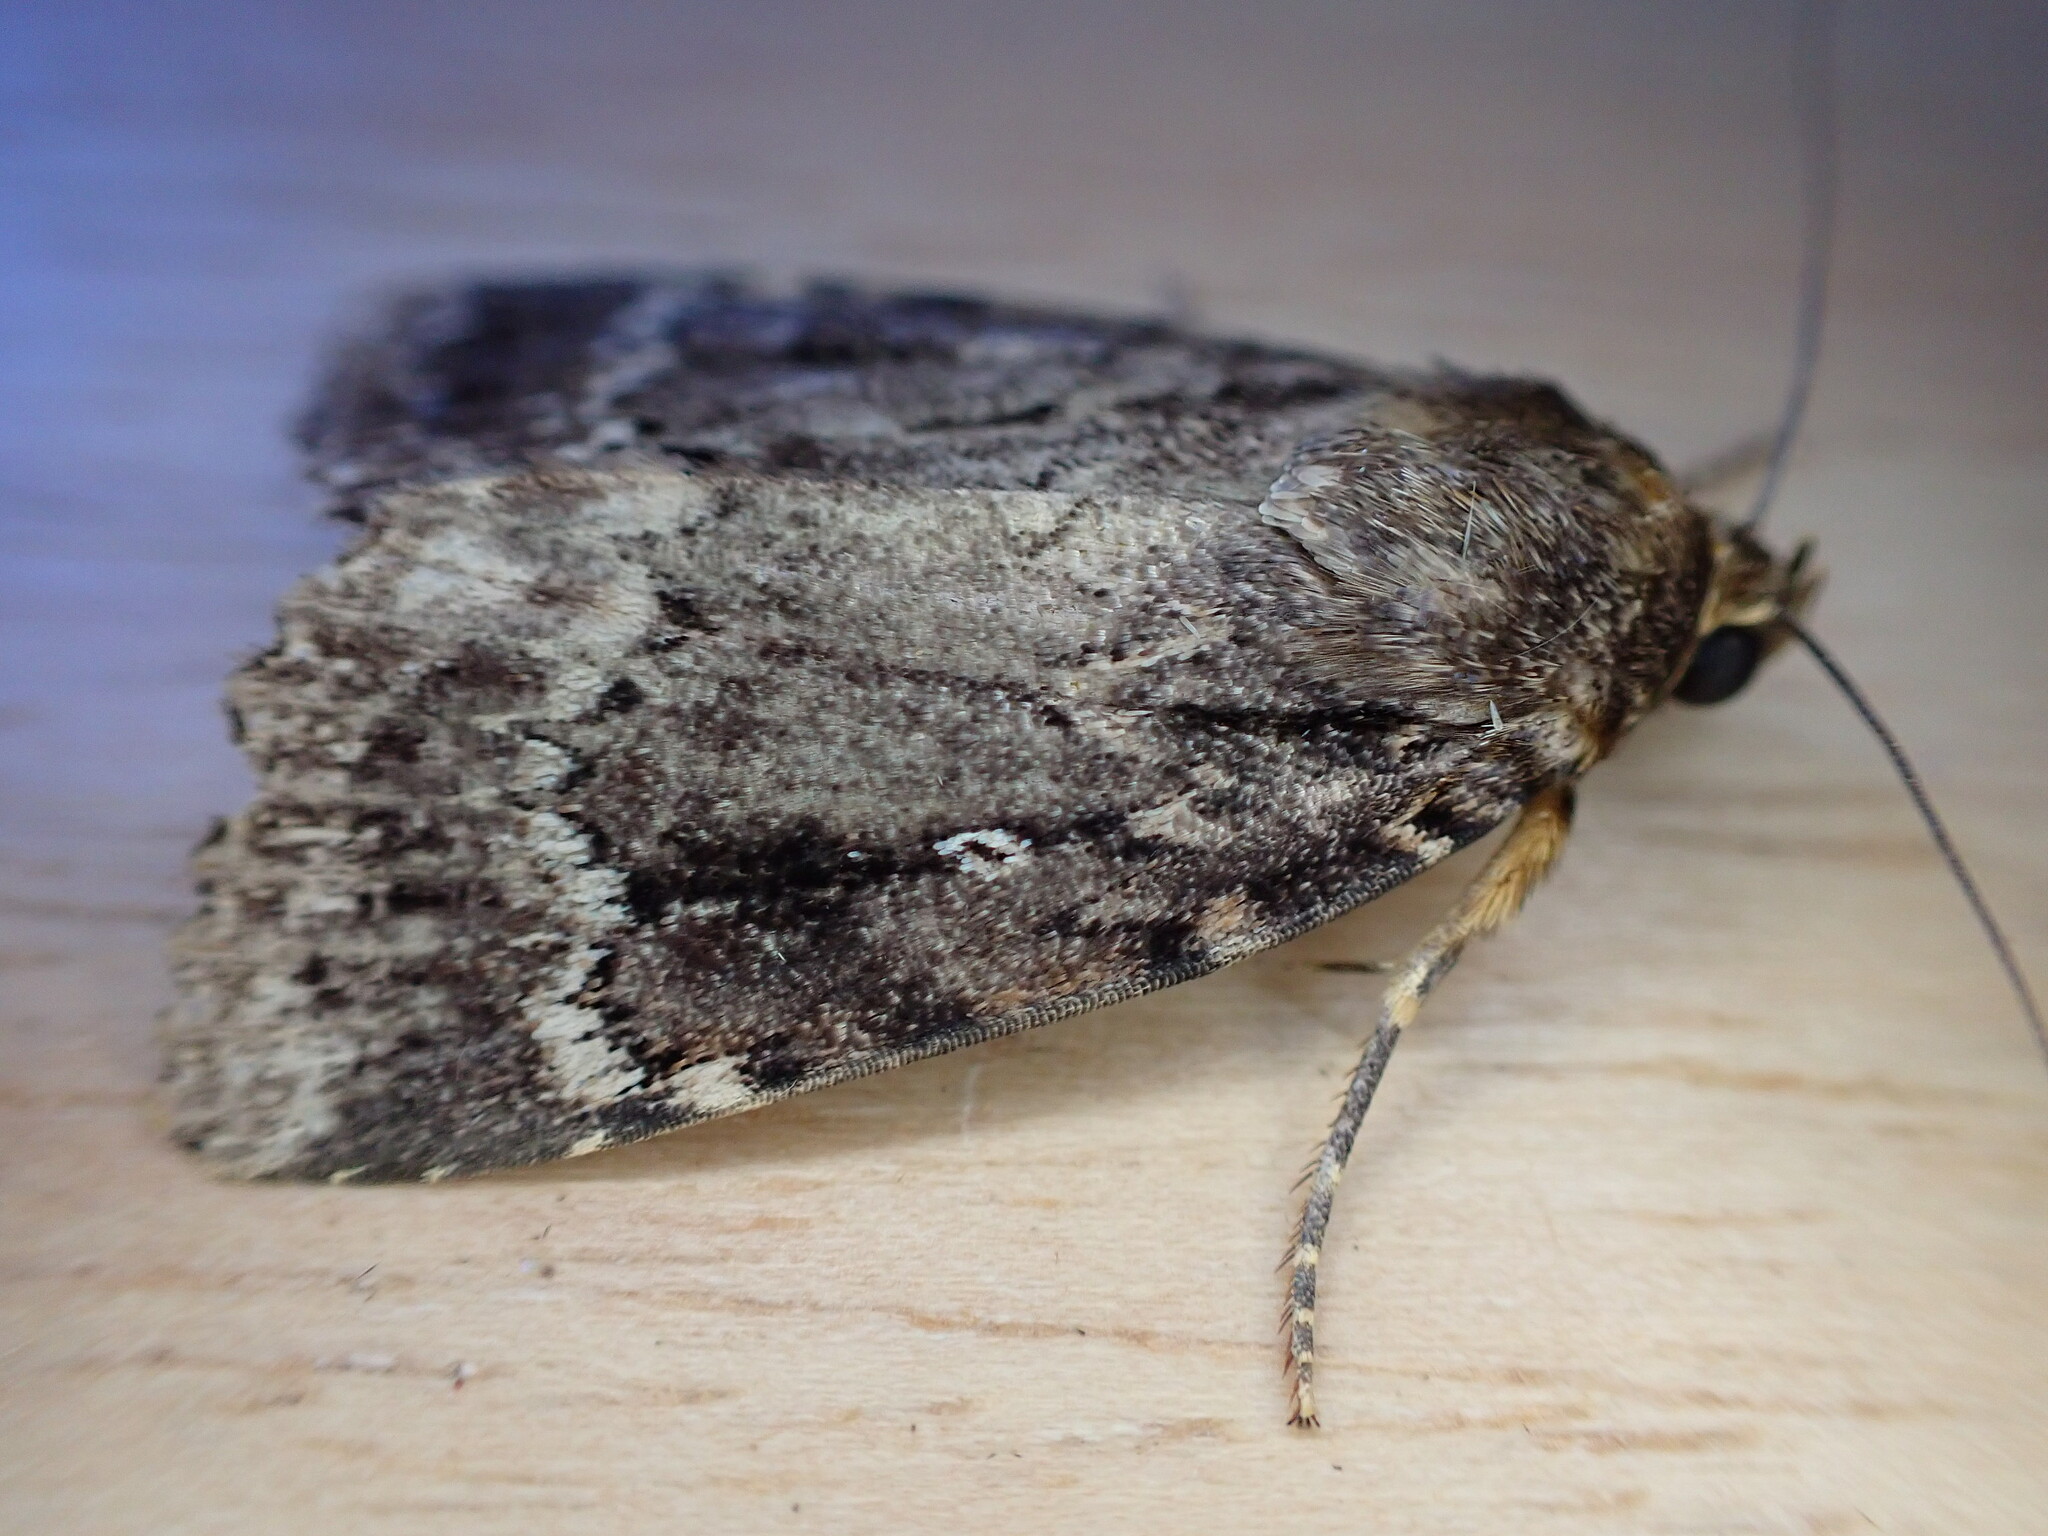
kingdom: Animalia
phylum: Arthropoda
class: Insecta
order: Lepidoptera
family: Noctuidae
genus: Amphipyra
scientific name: Amphipyra
